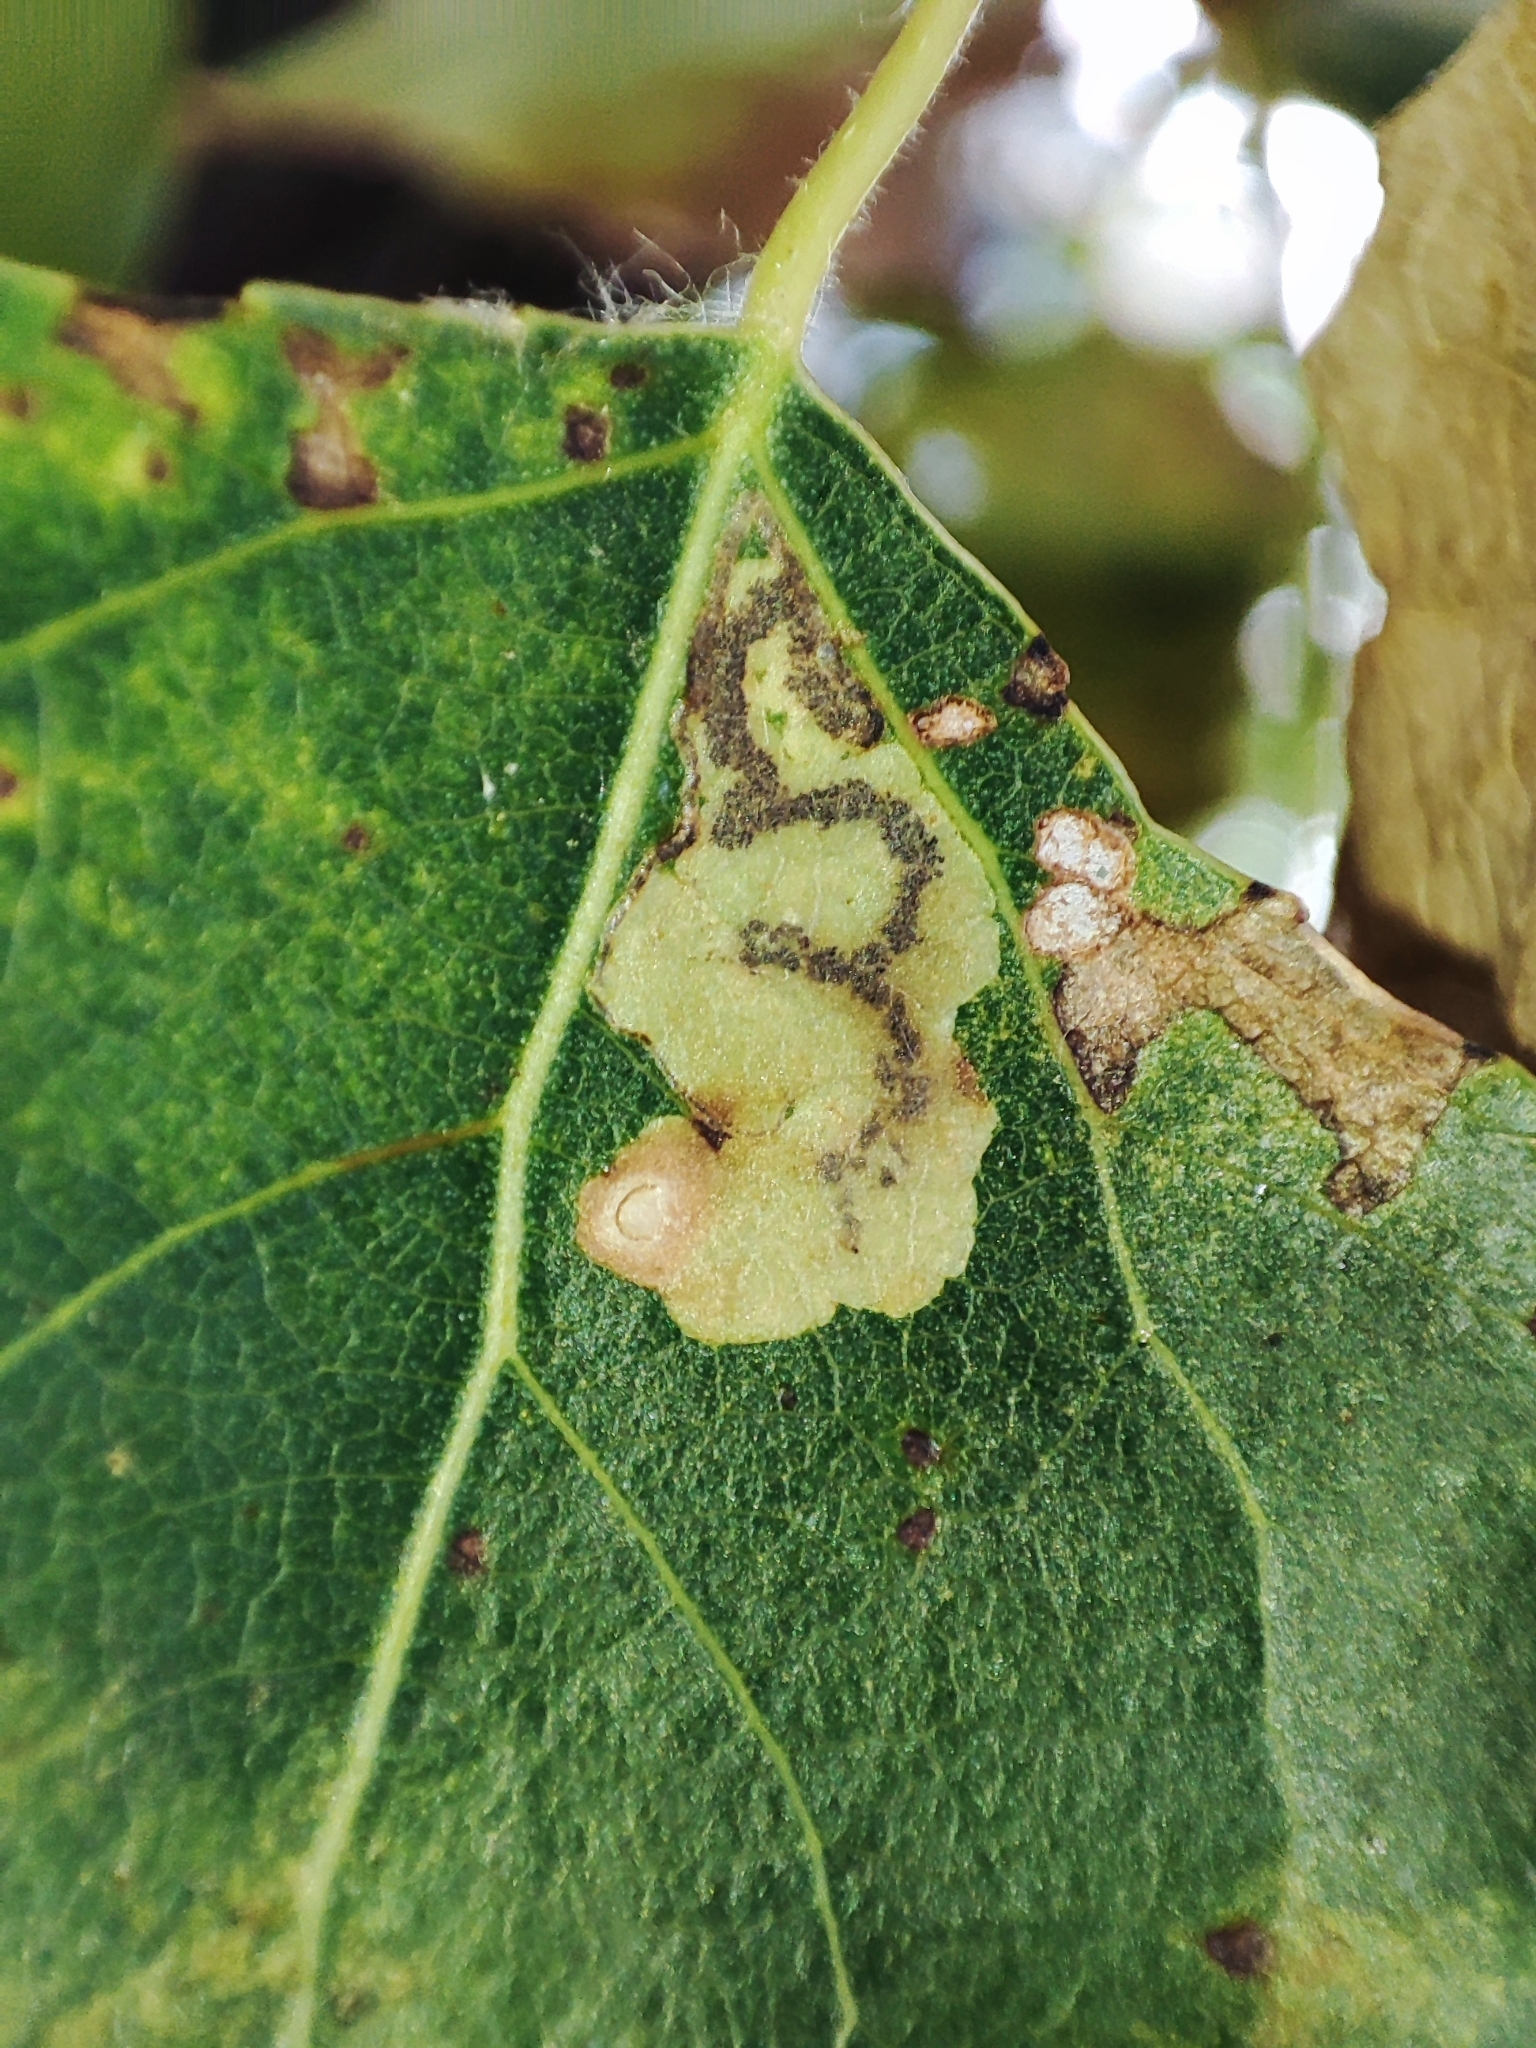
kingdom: Animalia
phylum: Arthropoda
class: Insecta
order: Lepidoptera
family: Nepticulidae
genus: Stigmella
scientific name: Stigmella trimaculella
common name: Black-poplar pigmy
